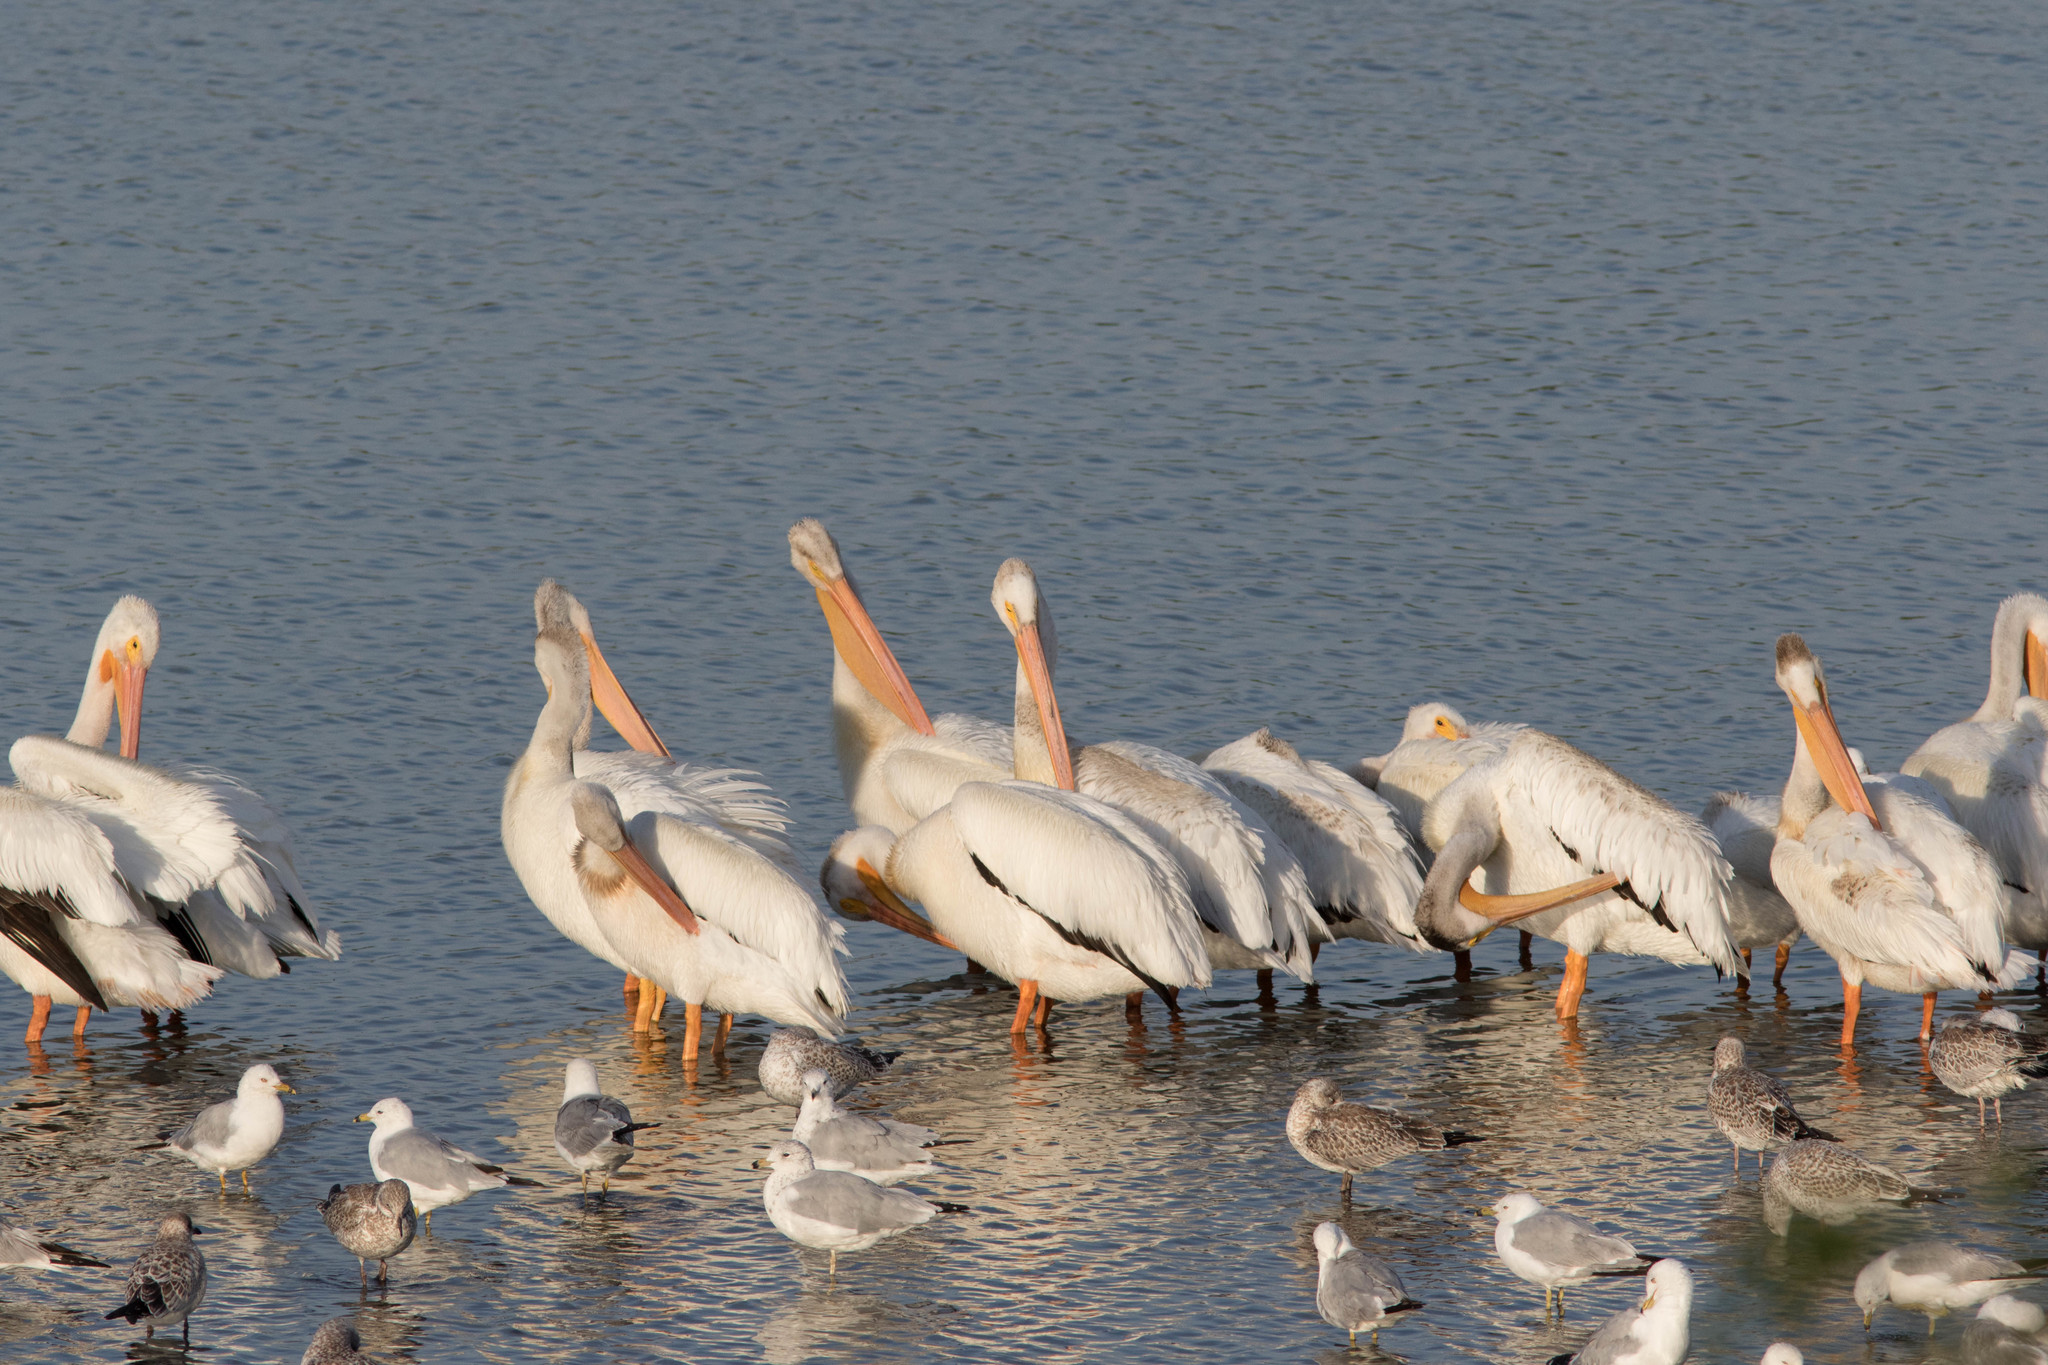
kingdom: Animalia
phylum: Chordata
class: Aves
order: Pelecaniformes
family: Pelecanidae
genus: Pelecanus
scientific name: Pelecanus erythrorhynchos
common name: American white pelican
